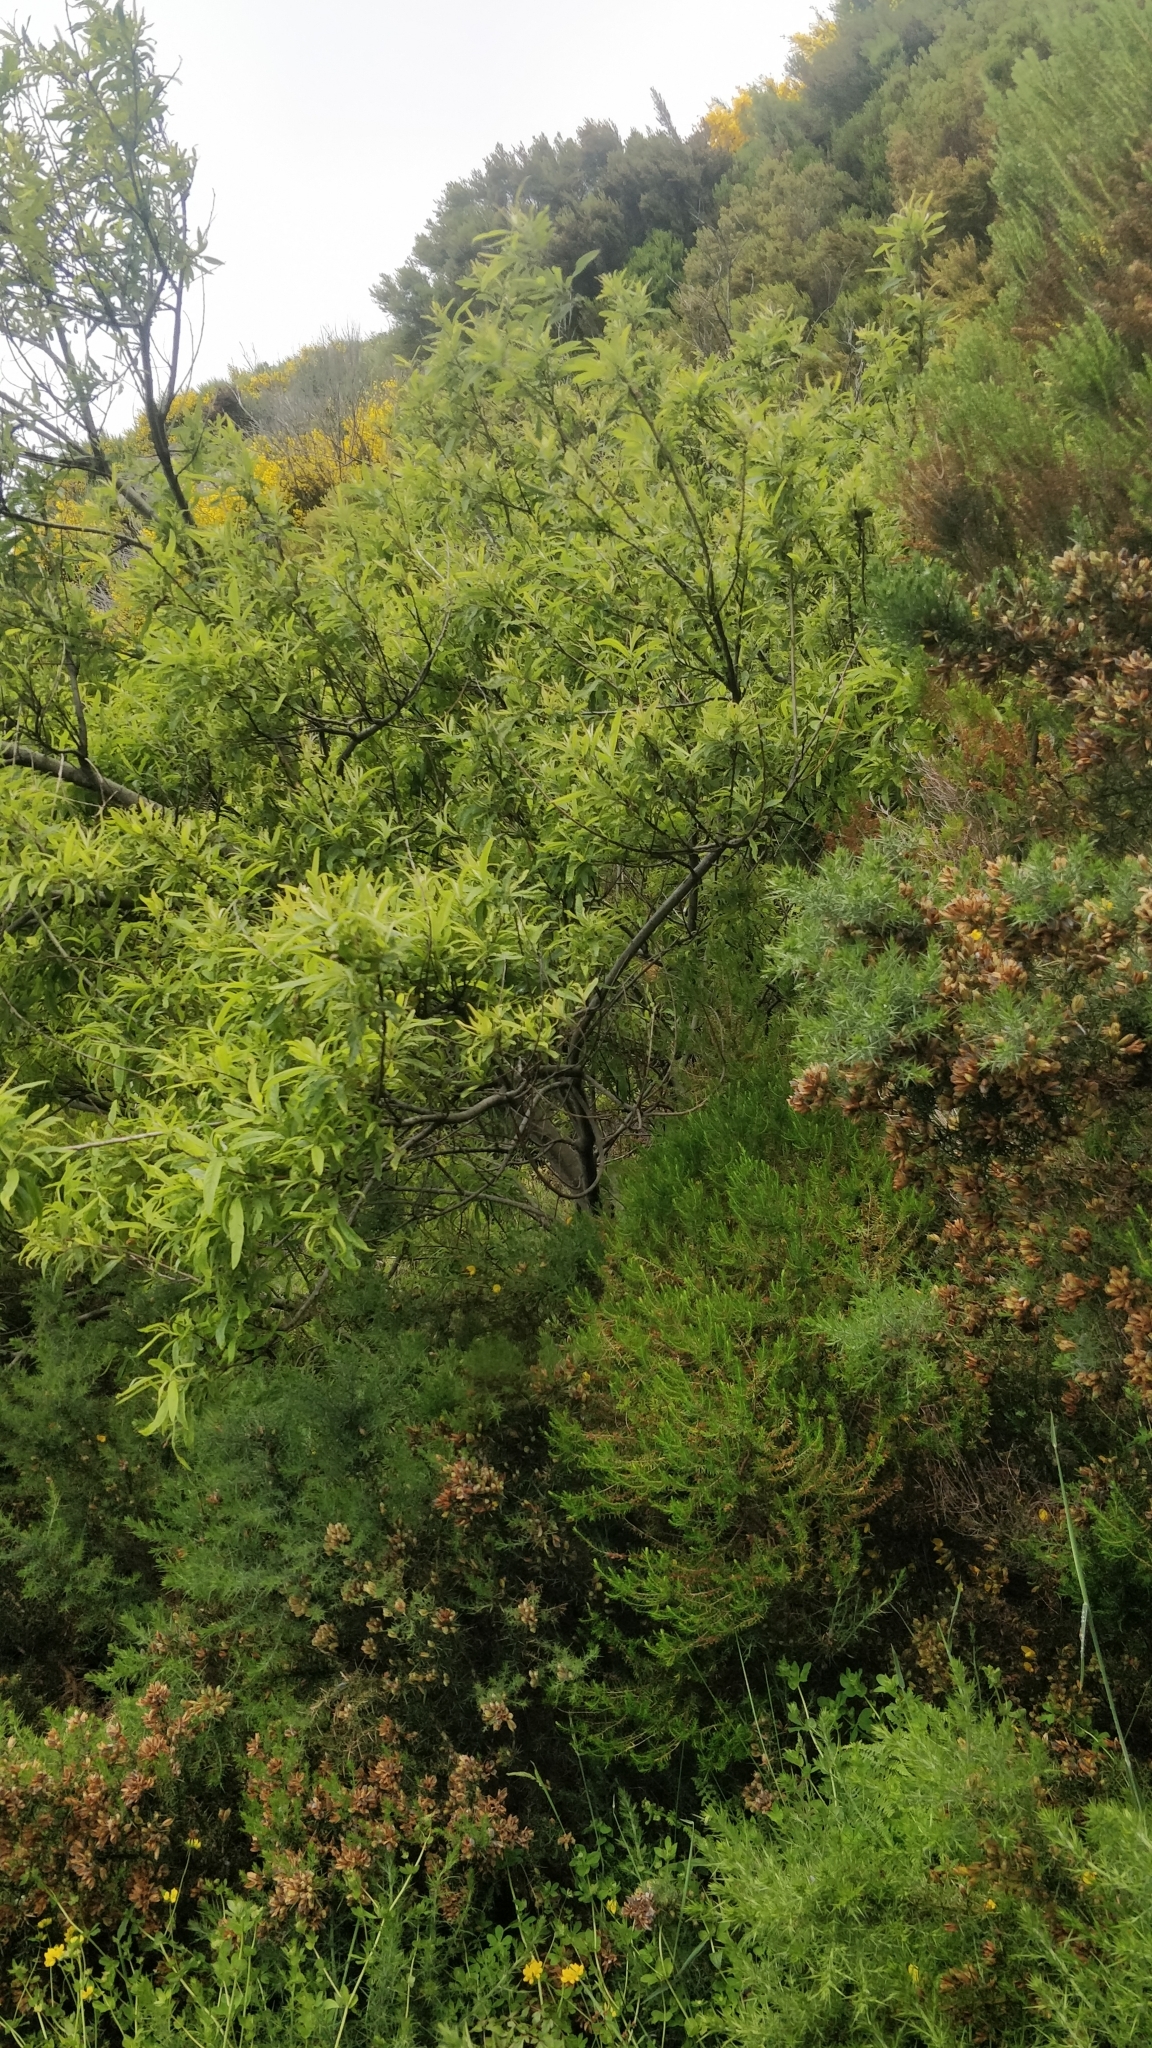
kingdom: Plantae
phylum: Tracheophyta
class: Magnoliopsida
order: Malpighiales
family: Salicaceae
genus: Salix
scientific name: Salix canariensis
